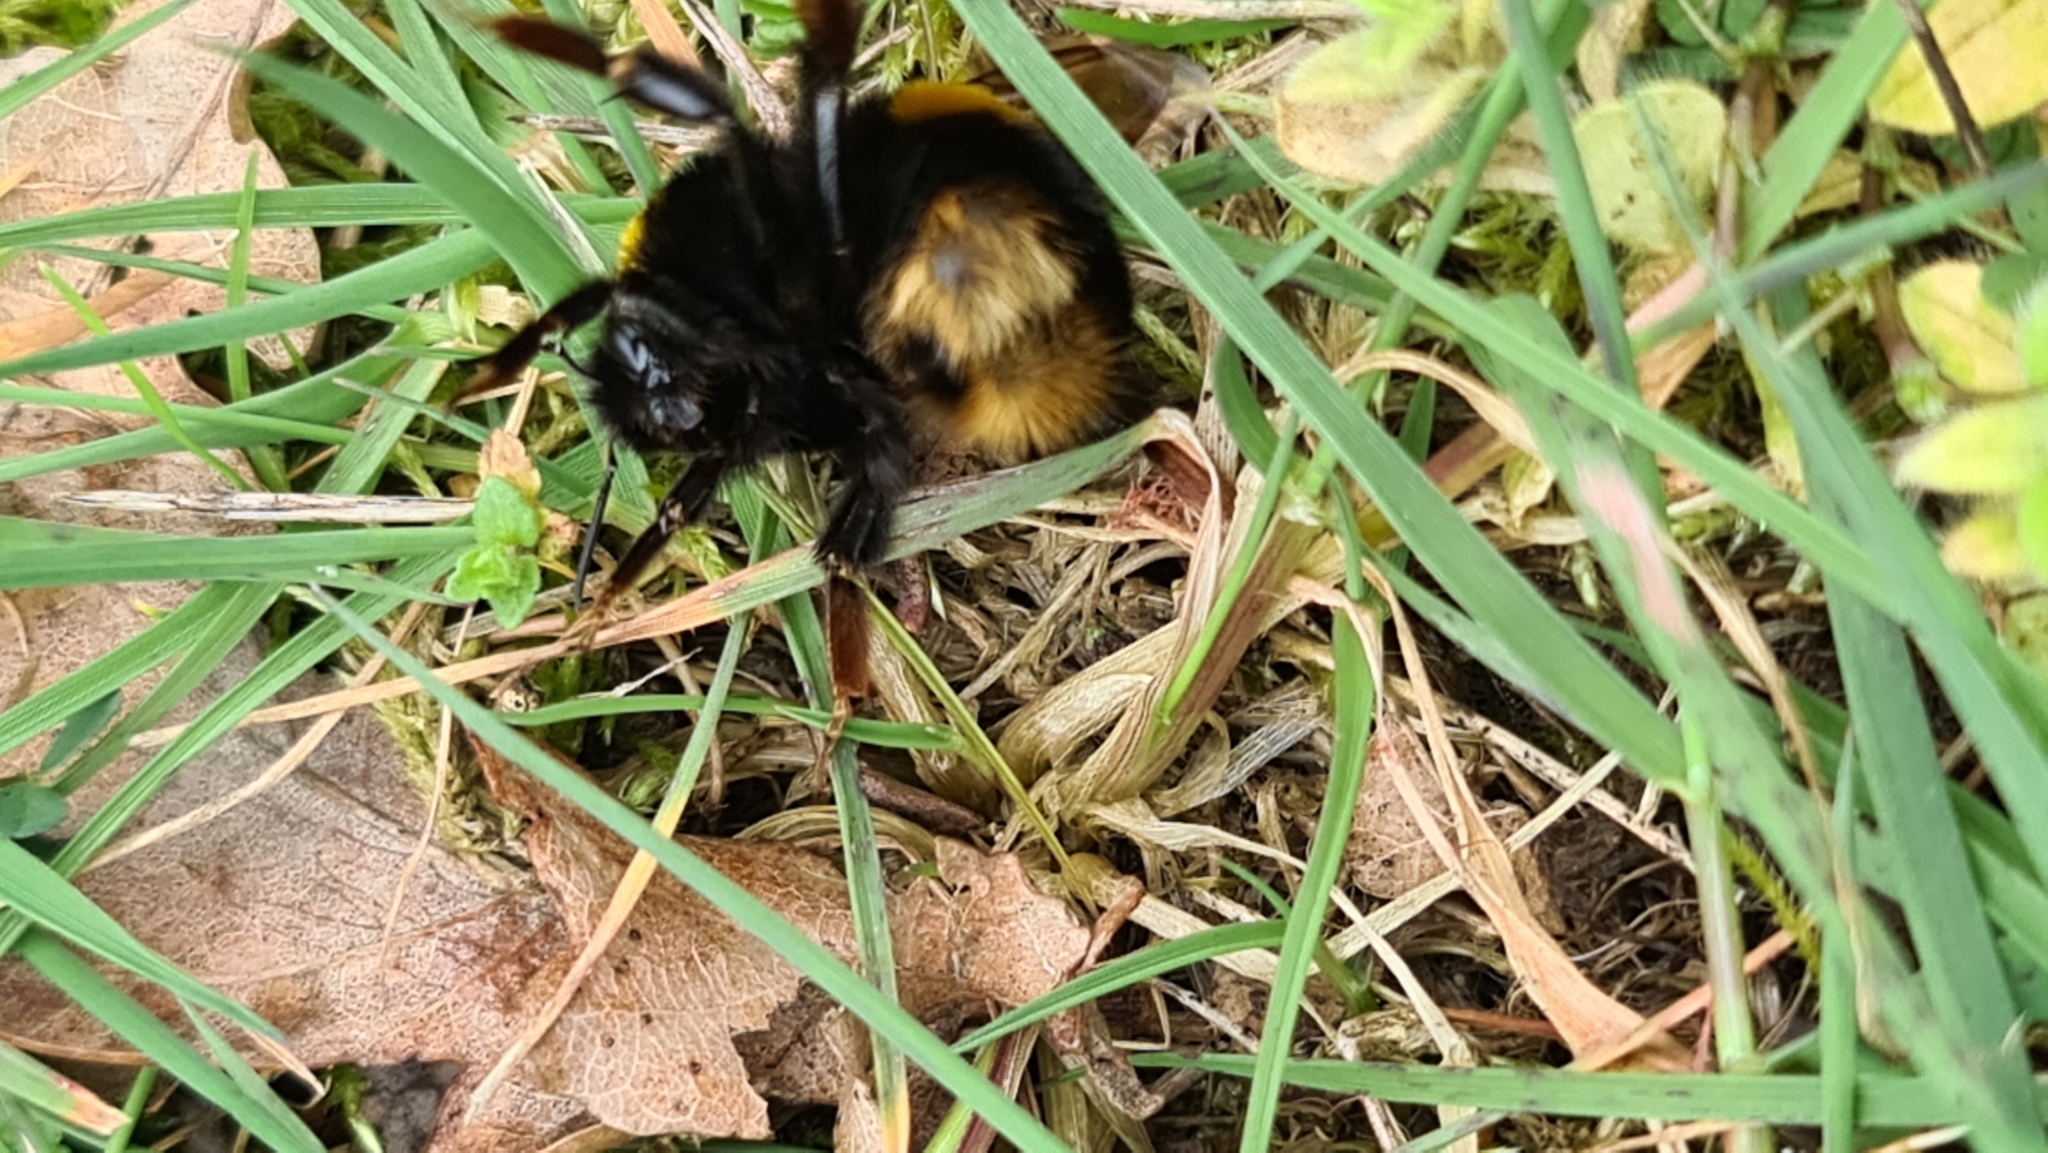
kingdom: Animalia
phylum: Arthropoda
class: Insecta
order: Hymenoptera
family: Apidae
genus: Bombus
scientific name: Bombus terrestris
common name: Buff-tailed bumblebee
